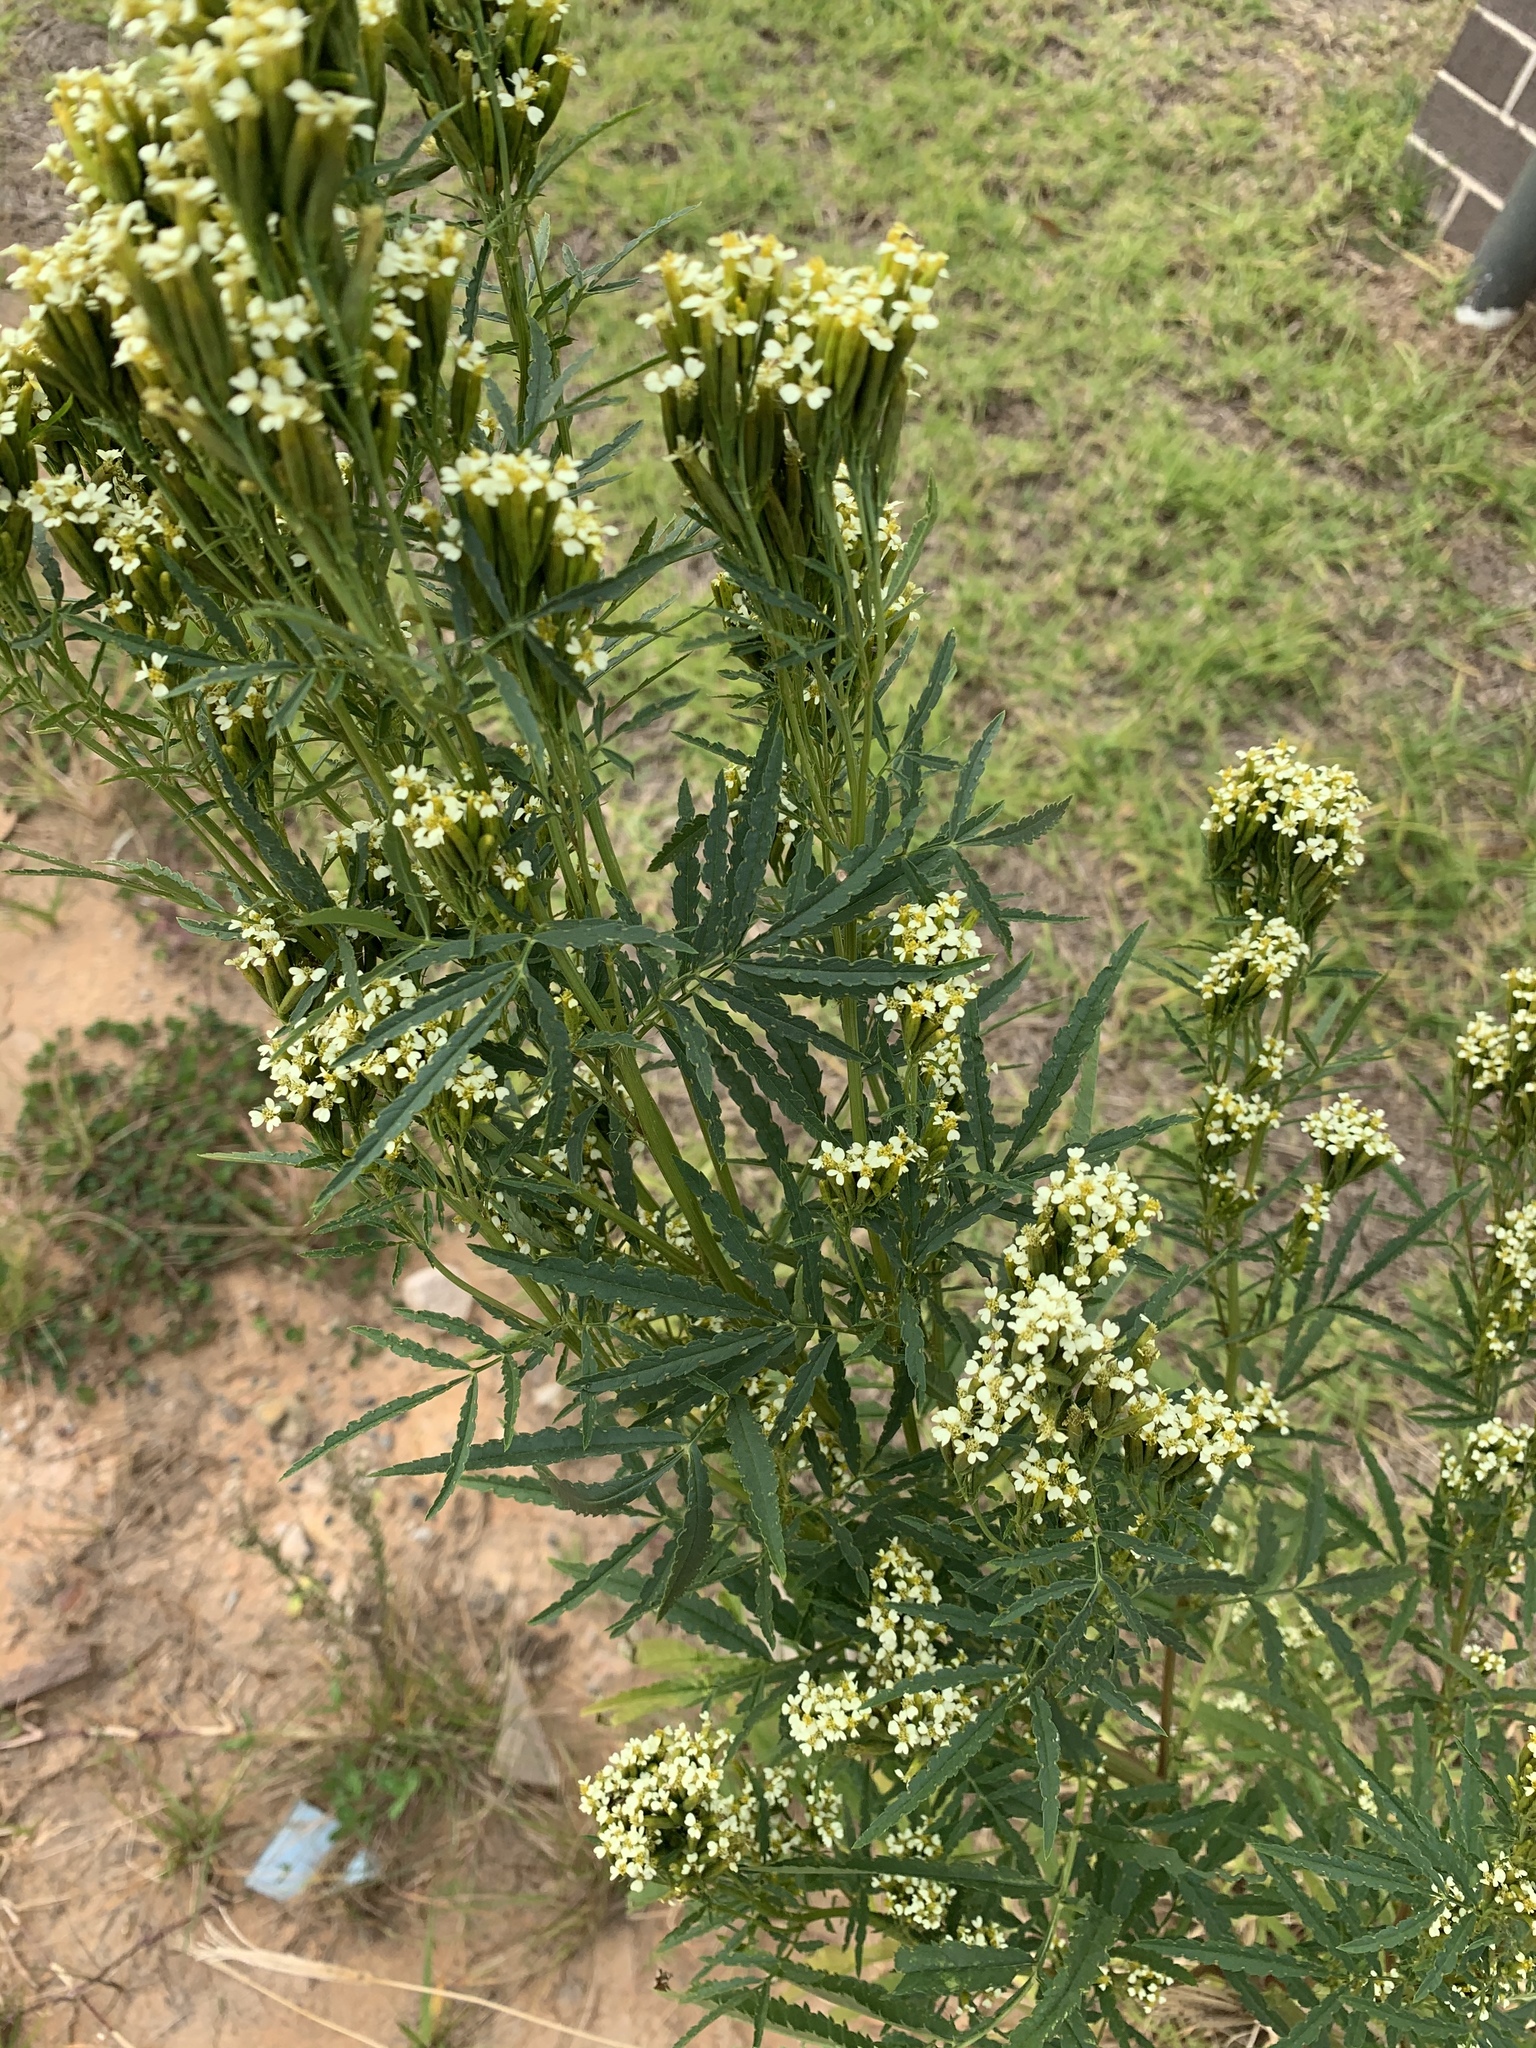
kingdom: Plantae
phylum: Tracheophyta
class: Magnoliopsida
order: Asterales
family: Asteraceae
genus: Tagetes
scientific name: Tagetes minuta
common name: Muster john henry
